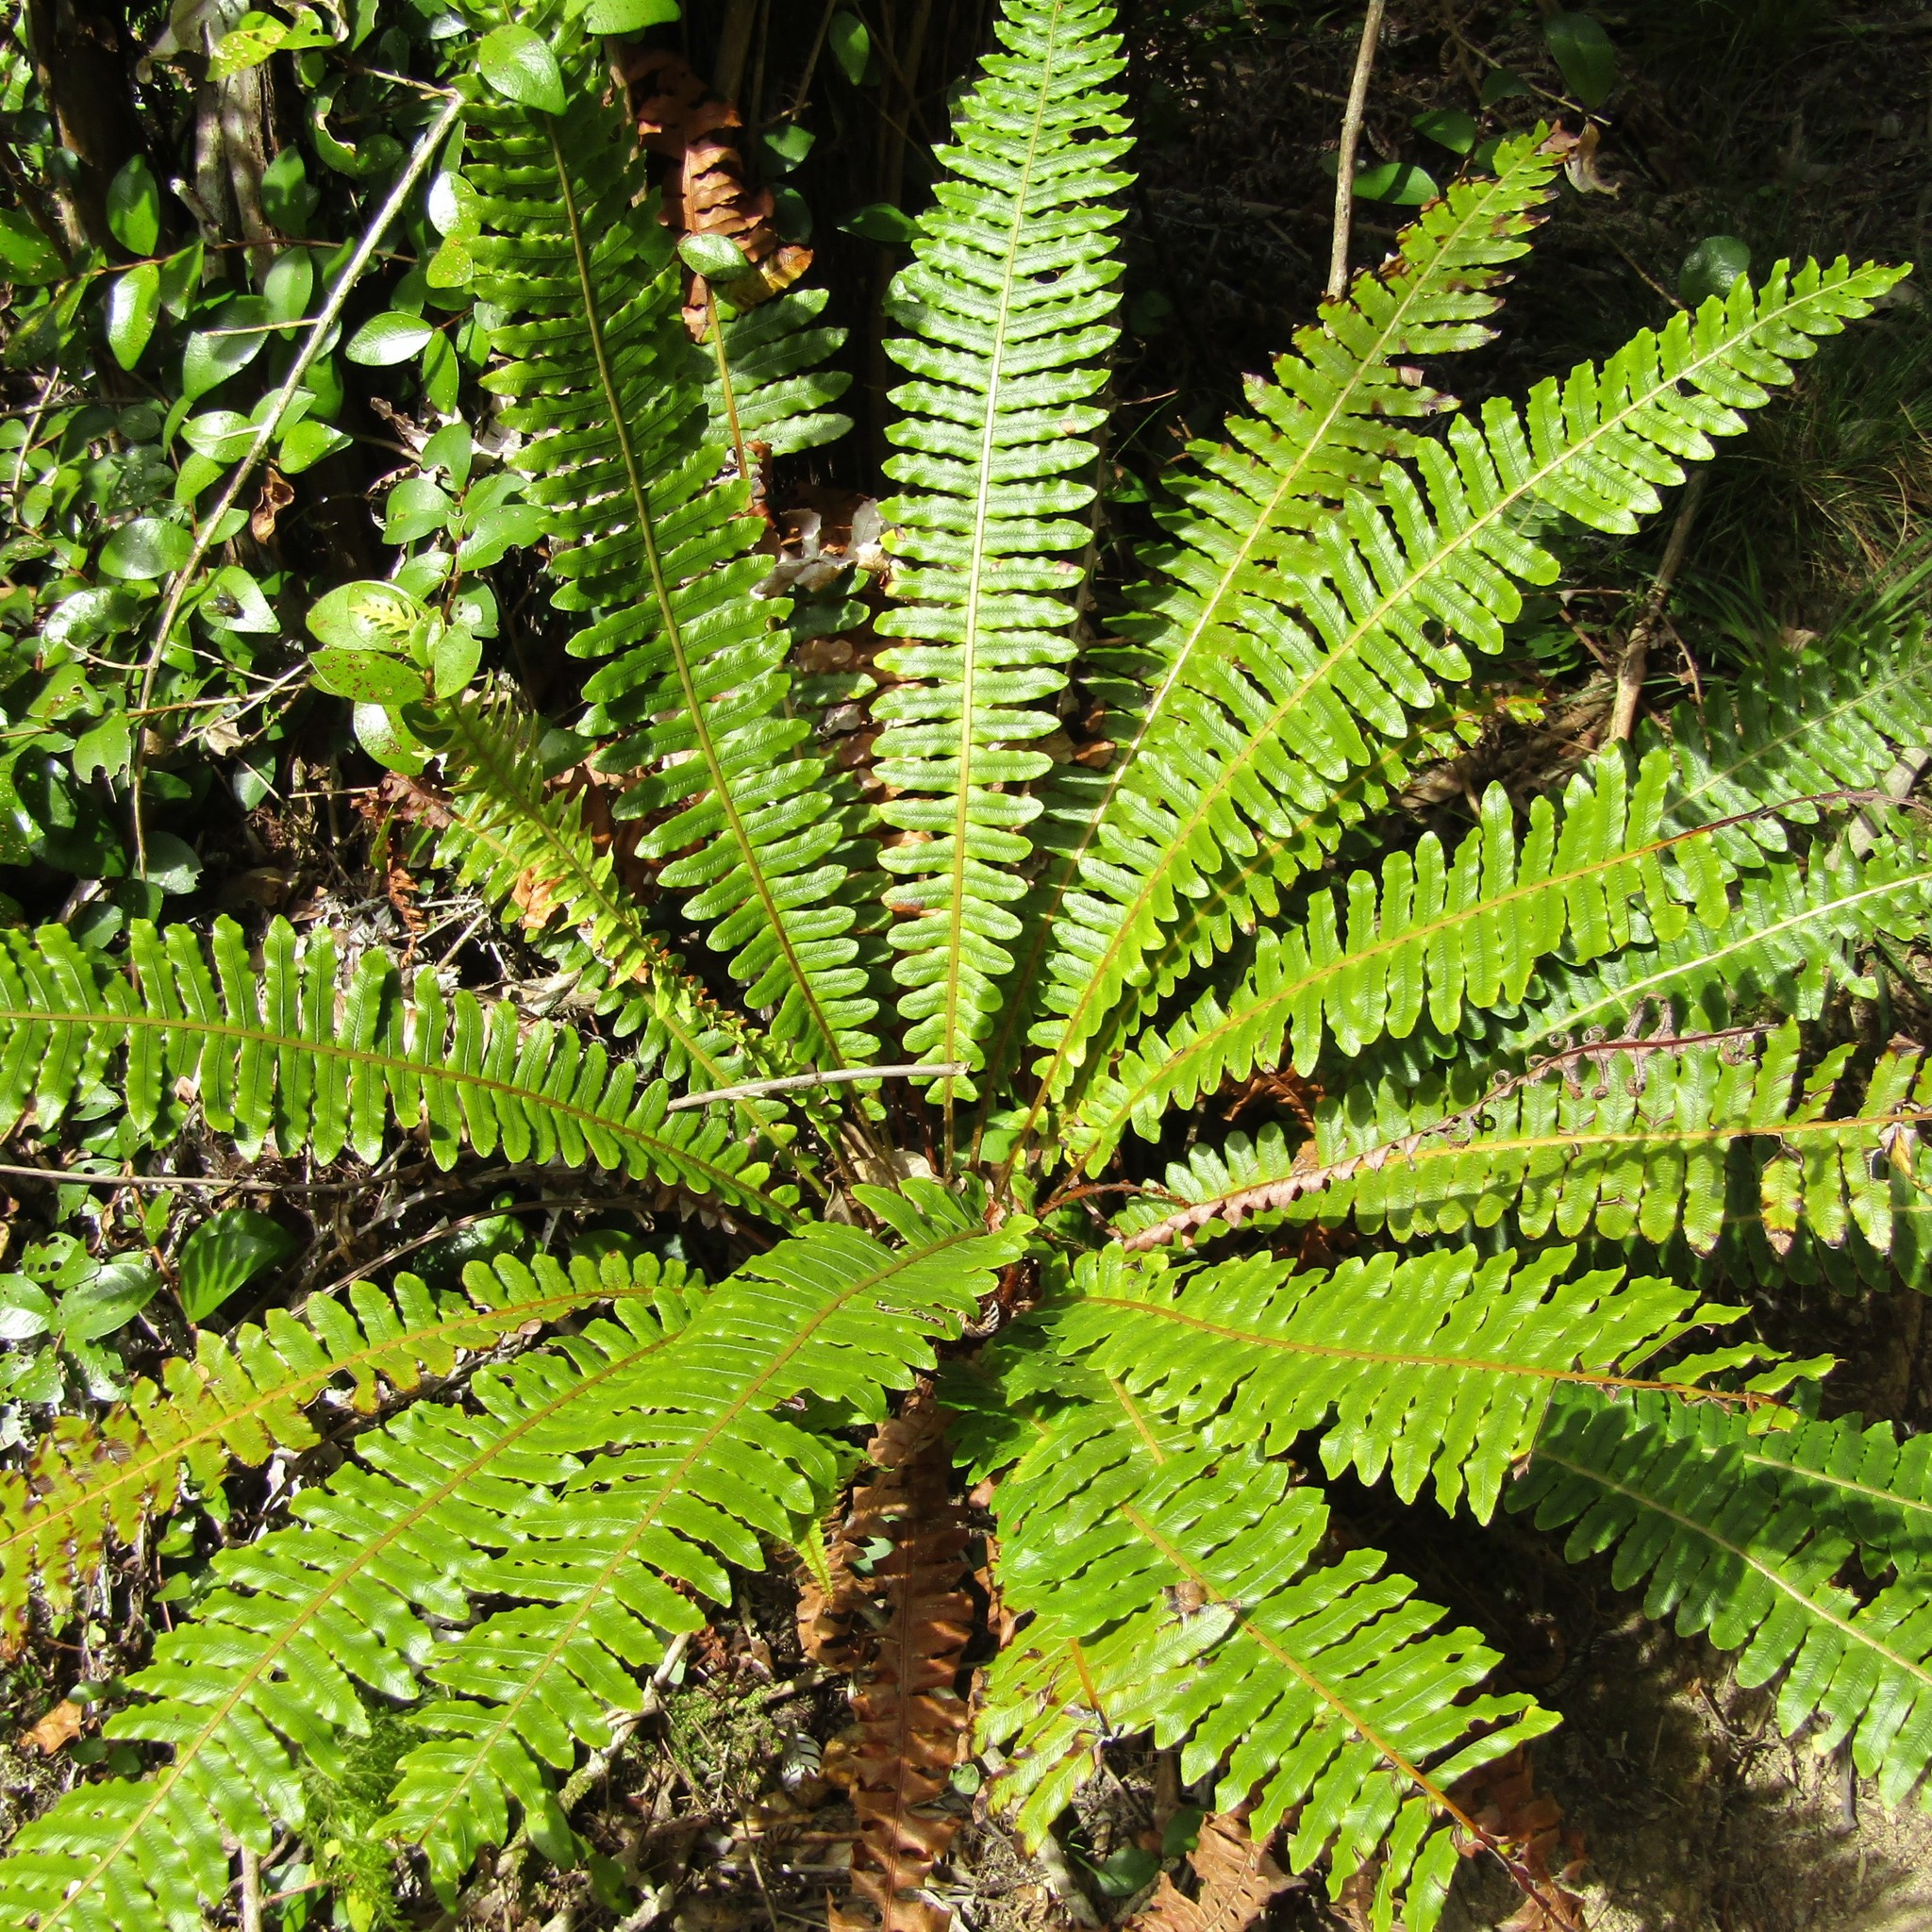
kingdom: Plantae
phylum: Tracheophyta
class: Polypodiopsida
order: Polypodiales
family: Blechnaceae
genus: Lomaria
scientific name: Lomaria discolor
